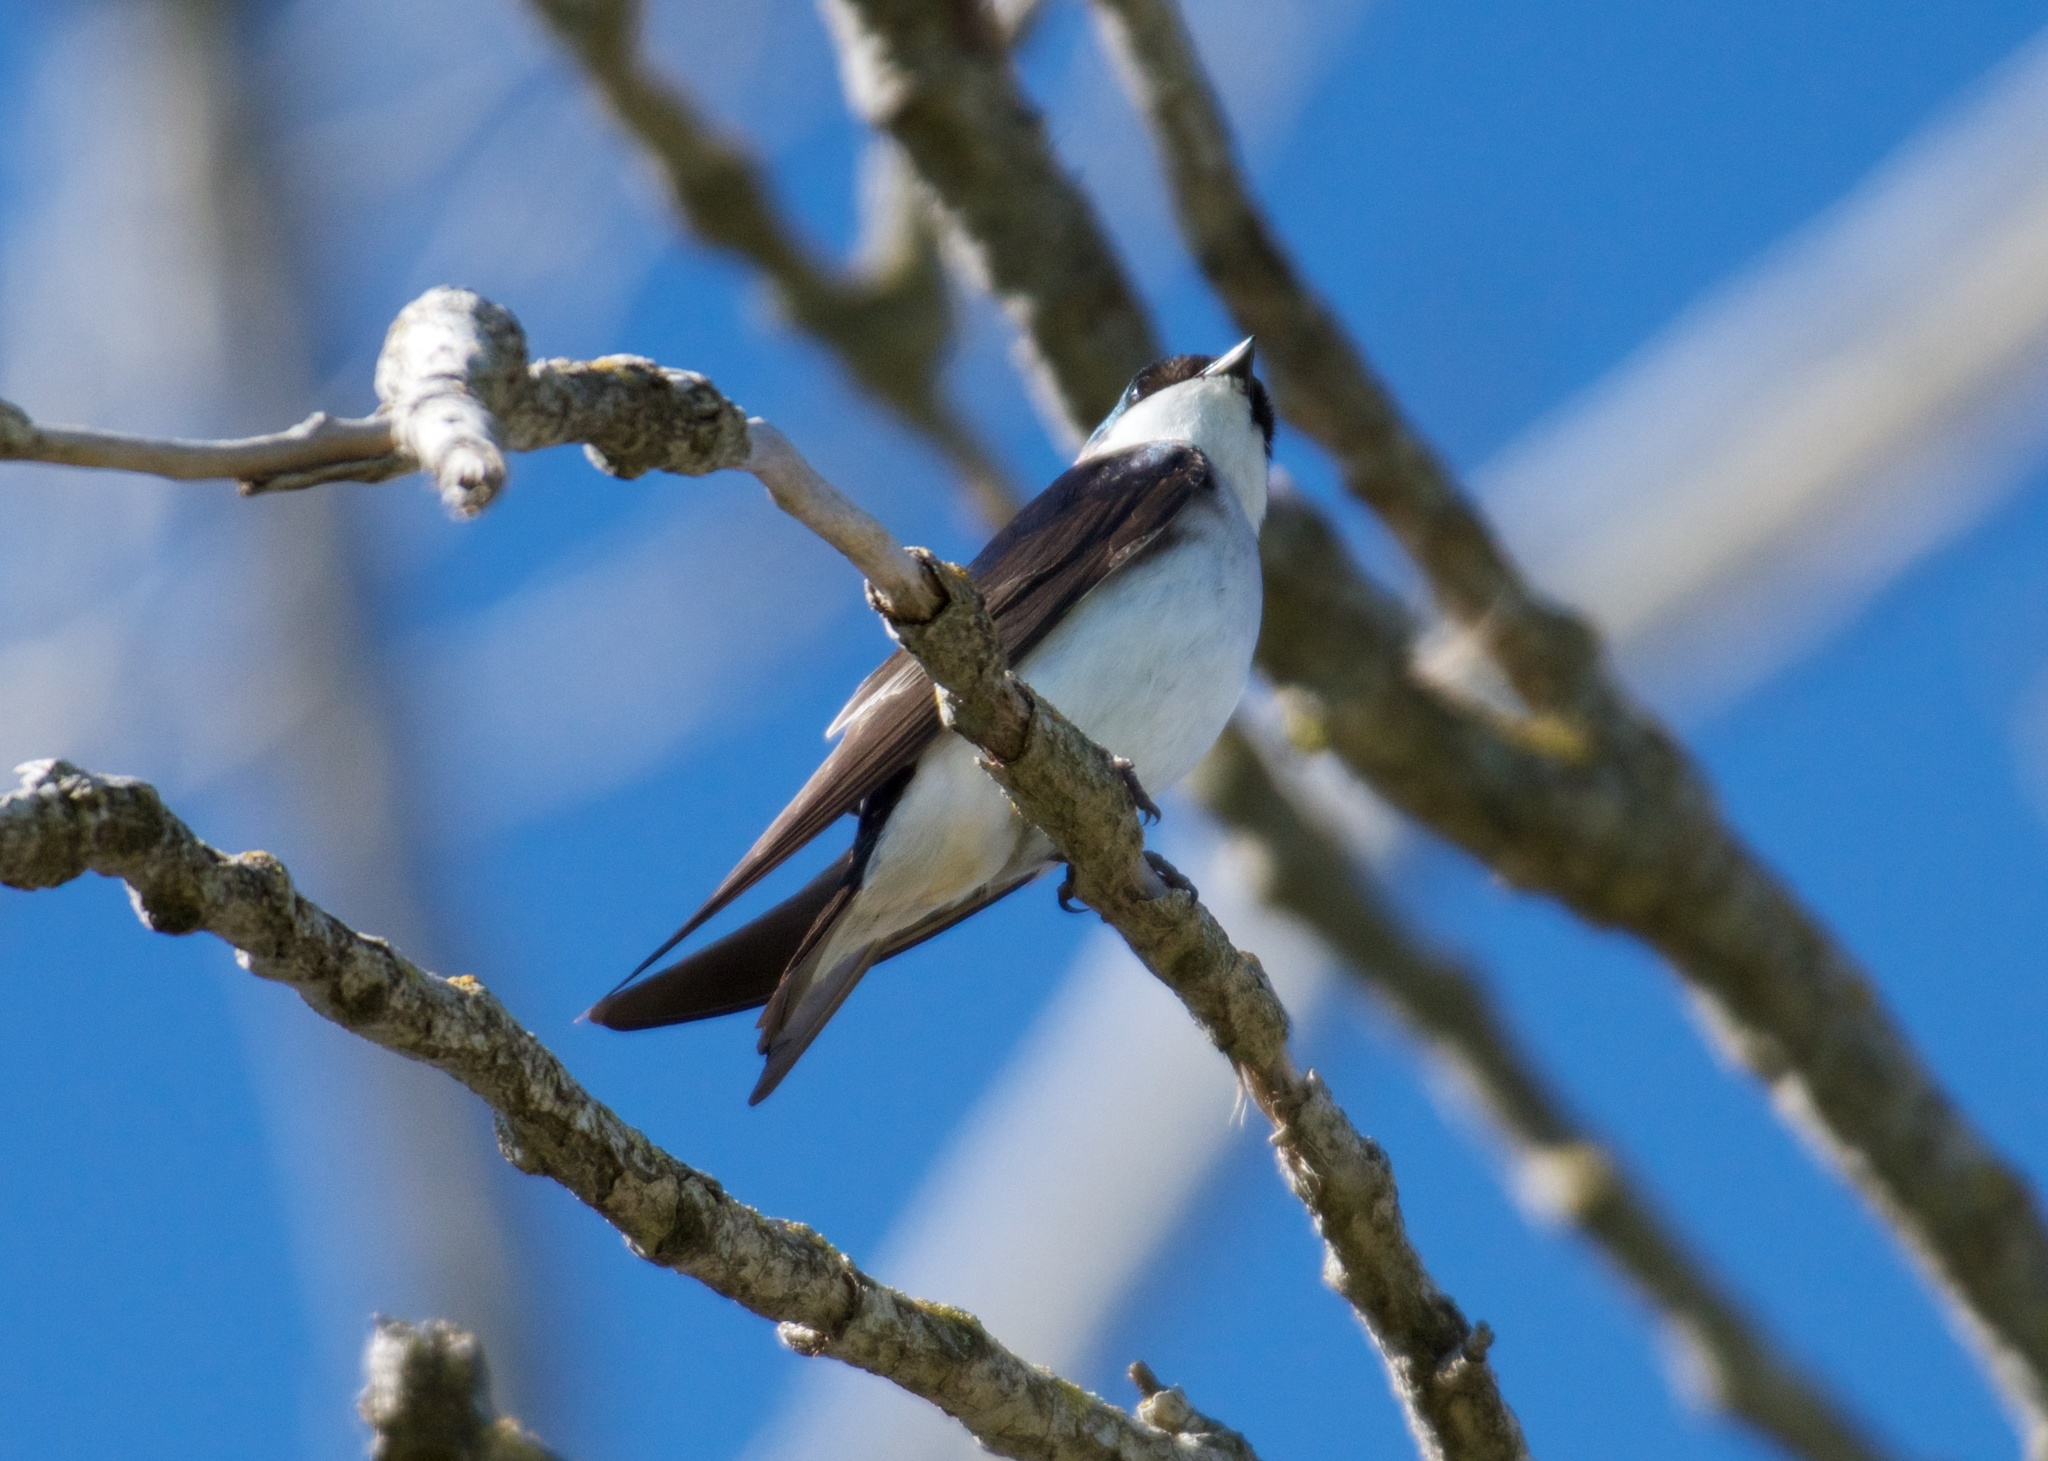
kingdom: Animalia
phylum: Chordata
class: Aves
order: Passeriformes
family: Hirundinidae
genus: Tachycineta
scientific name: Tachycineta bicolor
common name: Tree swallow
